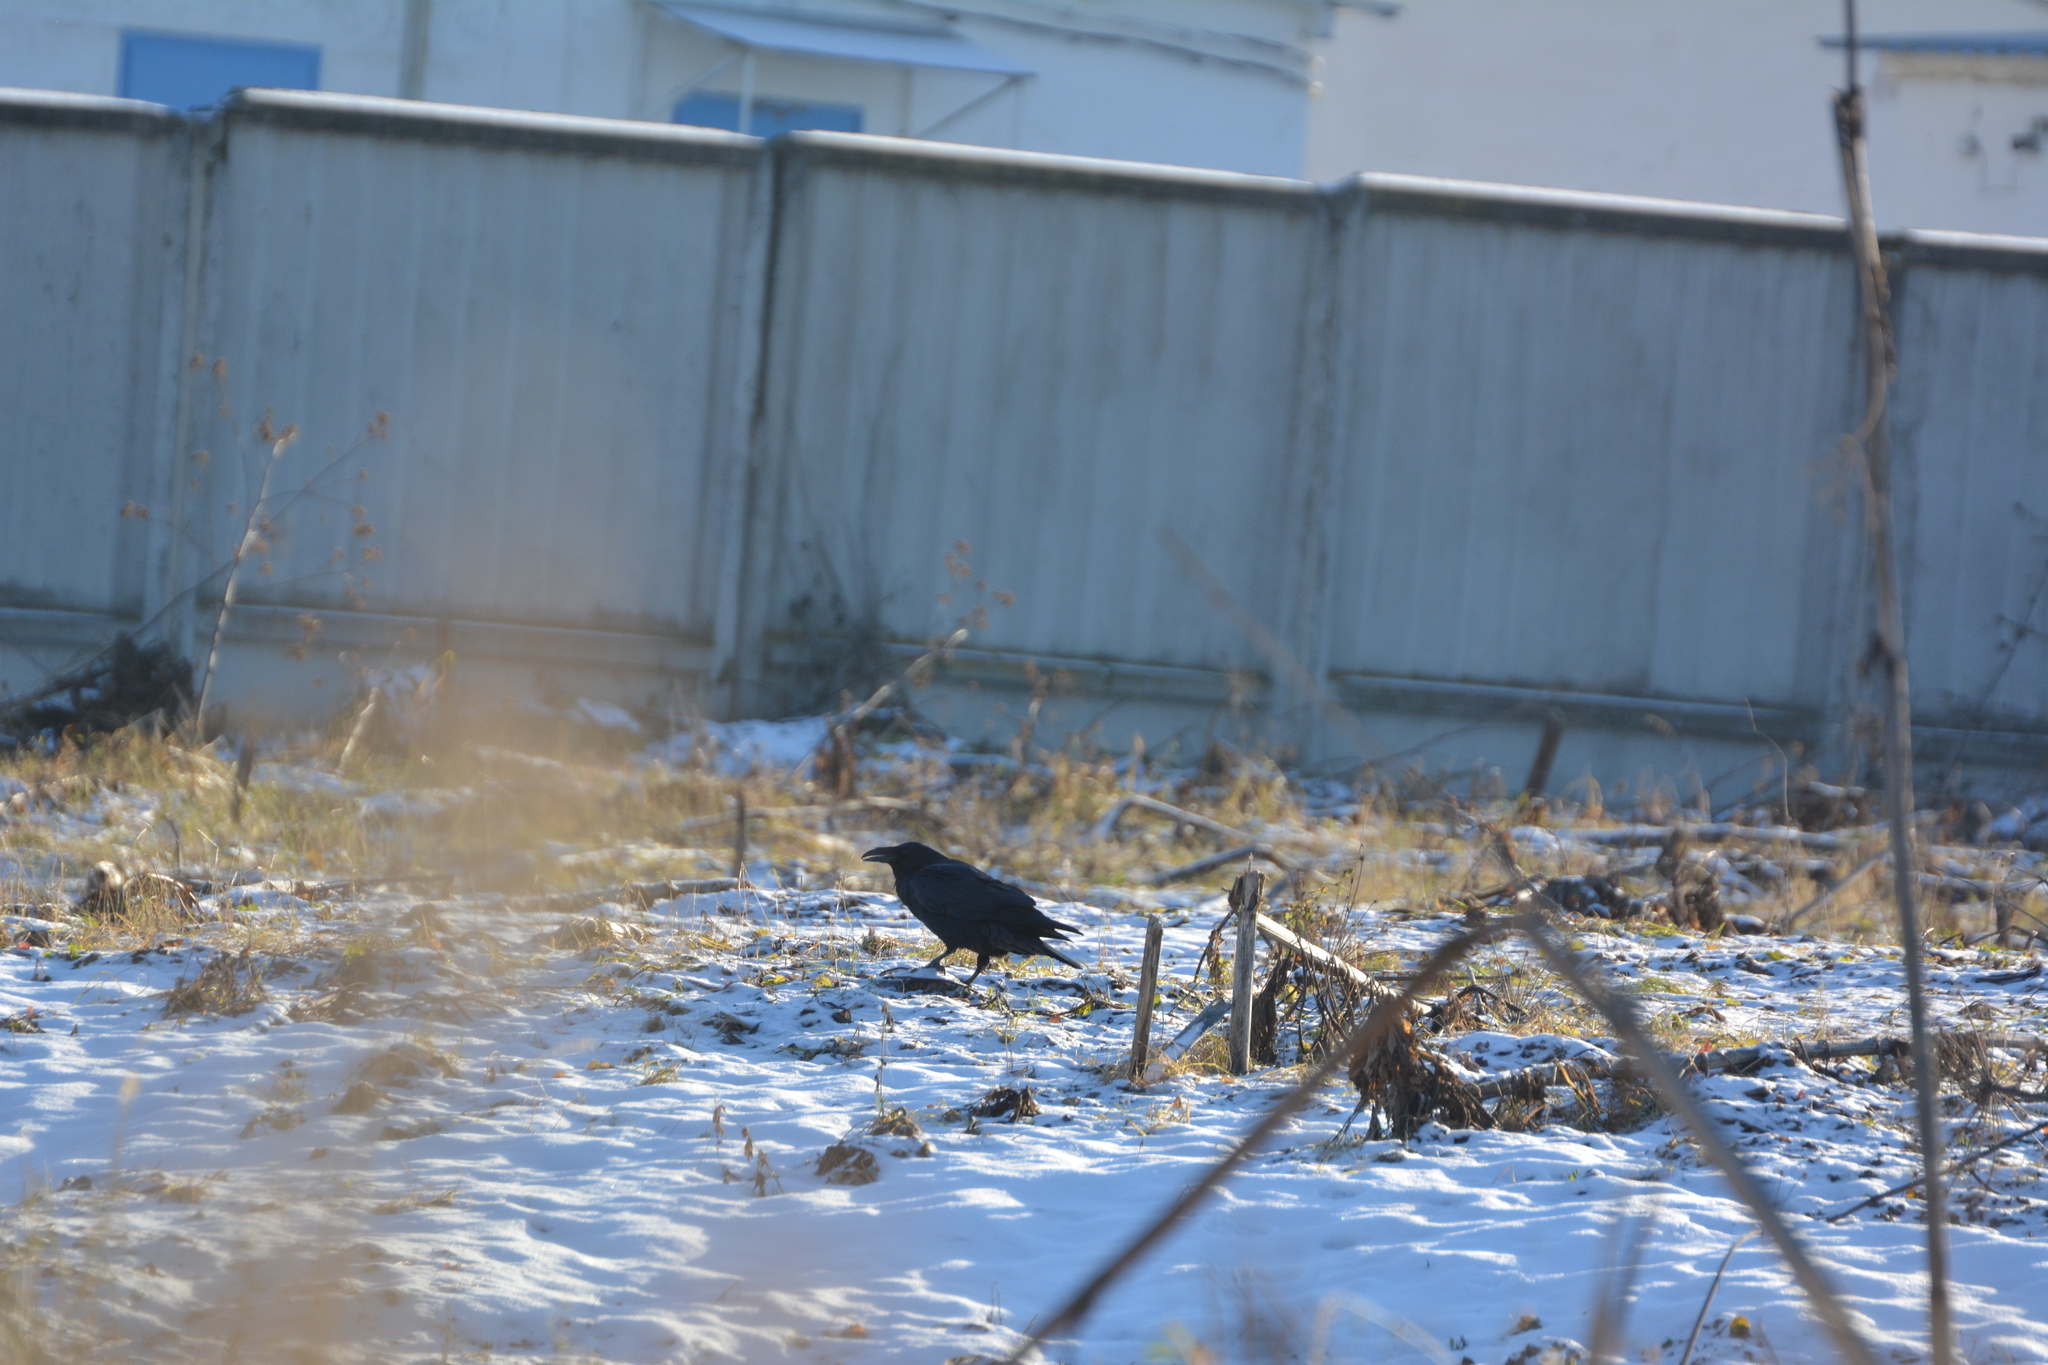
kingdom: Animalia
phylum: Chordata
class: Aves
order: Passeriformes
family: Corvidae
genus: Corvus
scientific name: Corvus corax
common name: Common raven
